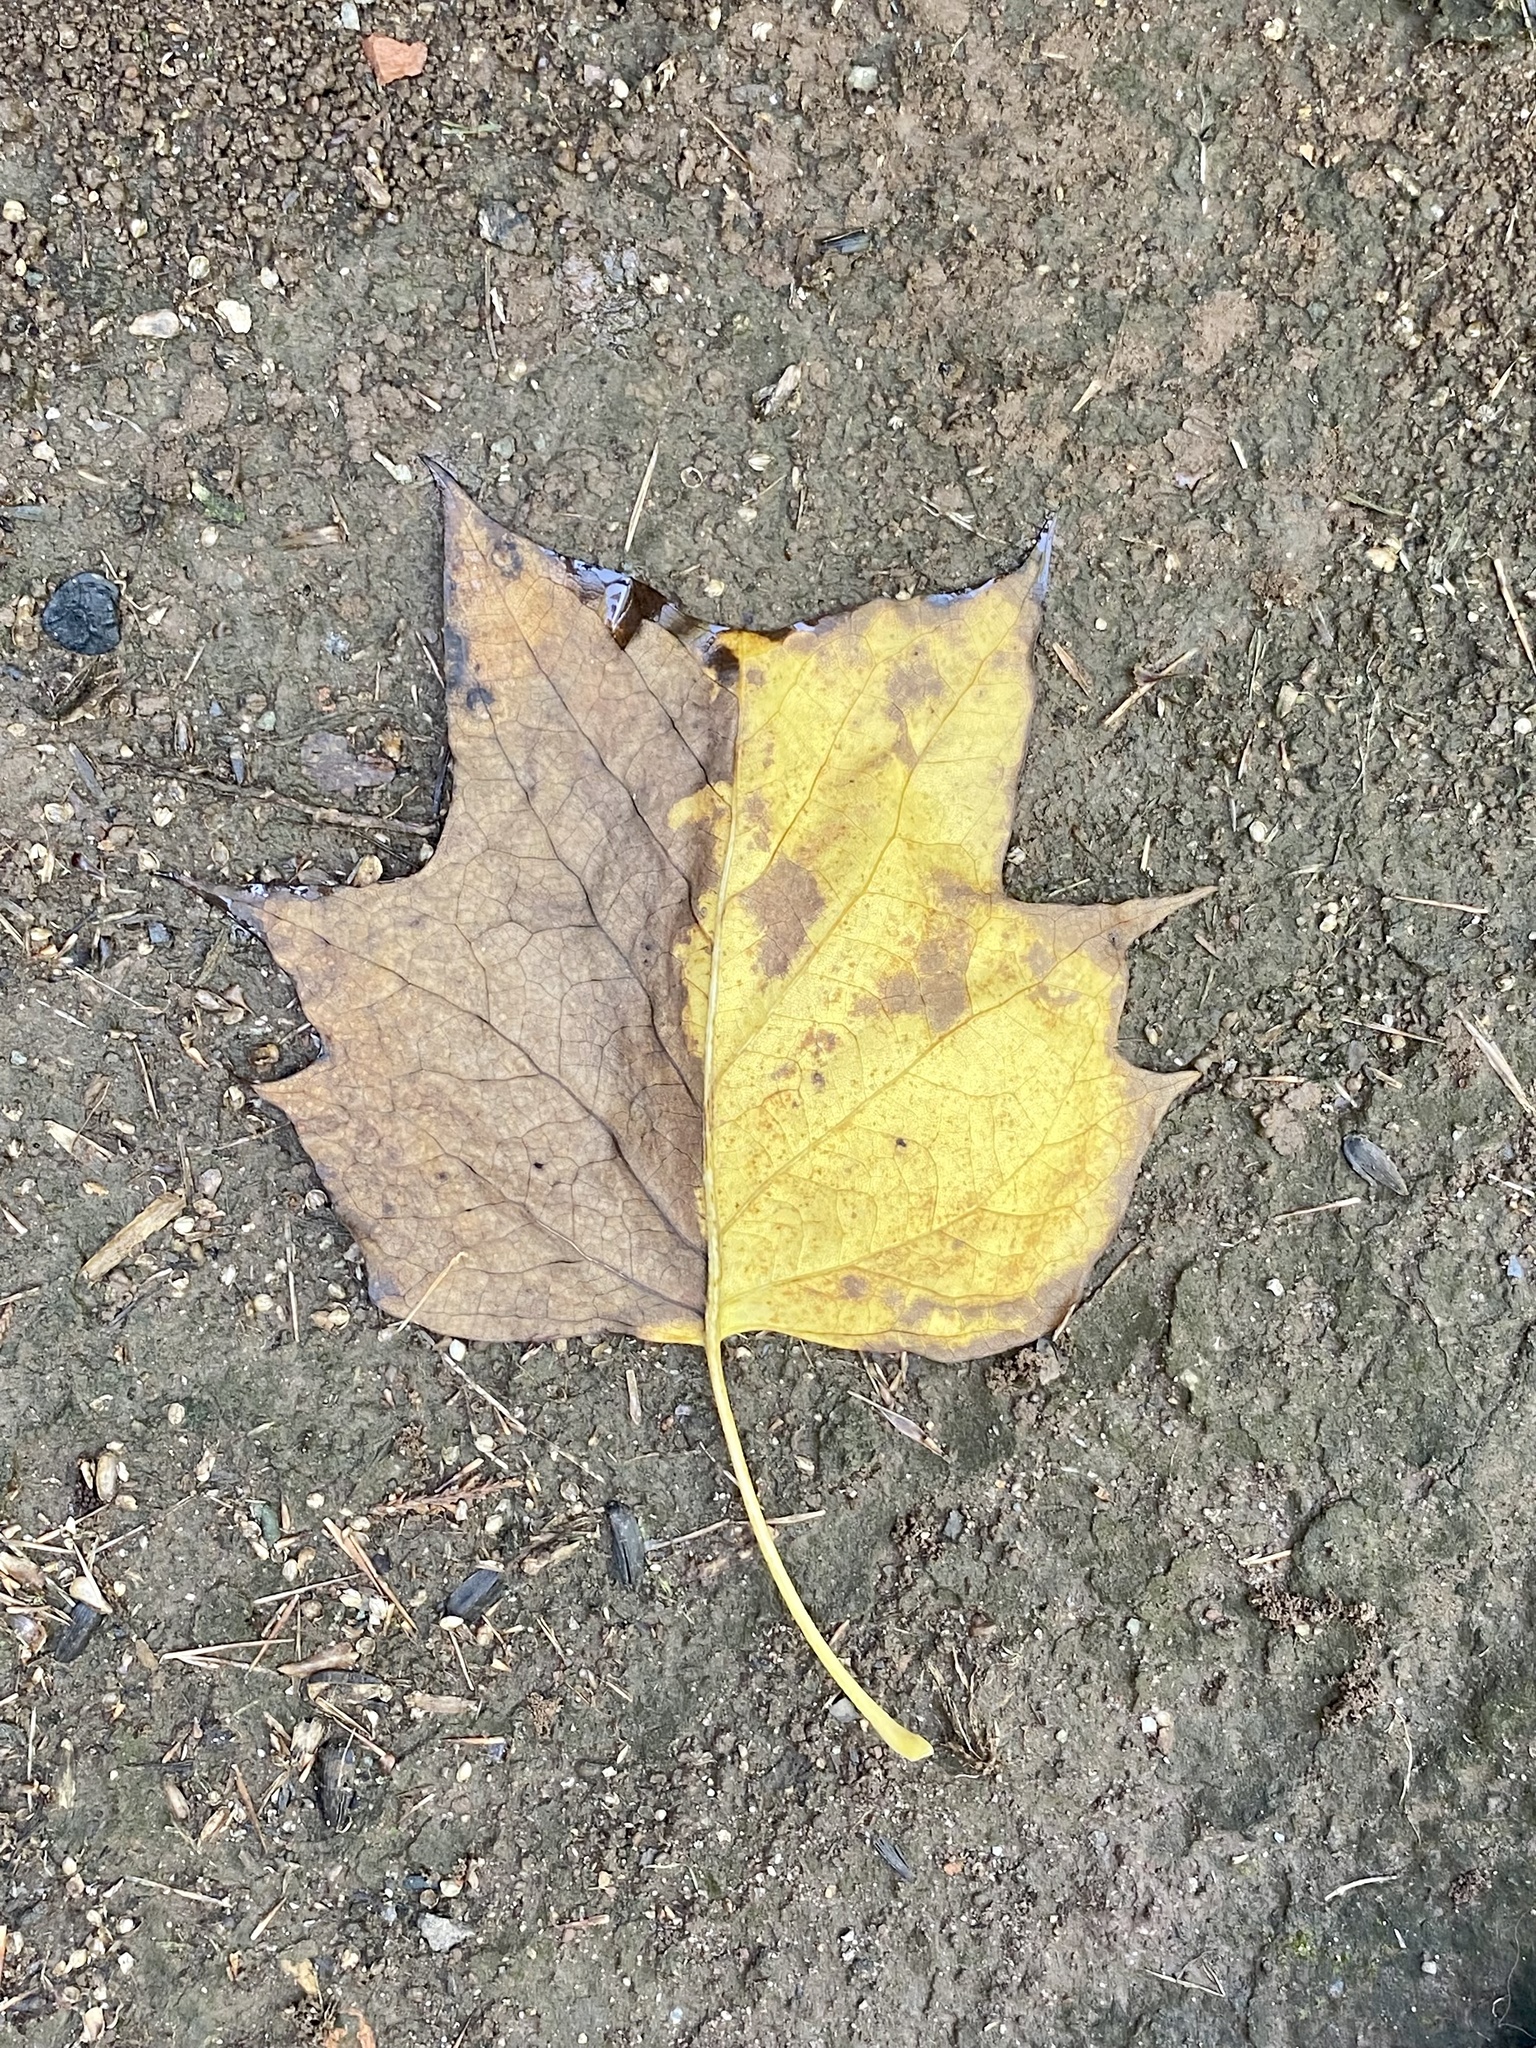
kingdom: Plantae
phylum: Tracheophyta
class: Magnoliopsida
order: Magnoliales
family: Magnoliaceae
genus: Liriodendron
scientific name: Liriodendron tulipifera
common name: Tulip tree
